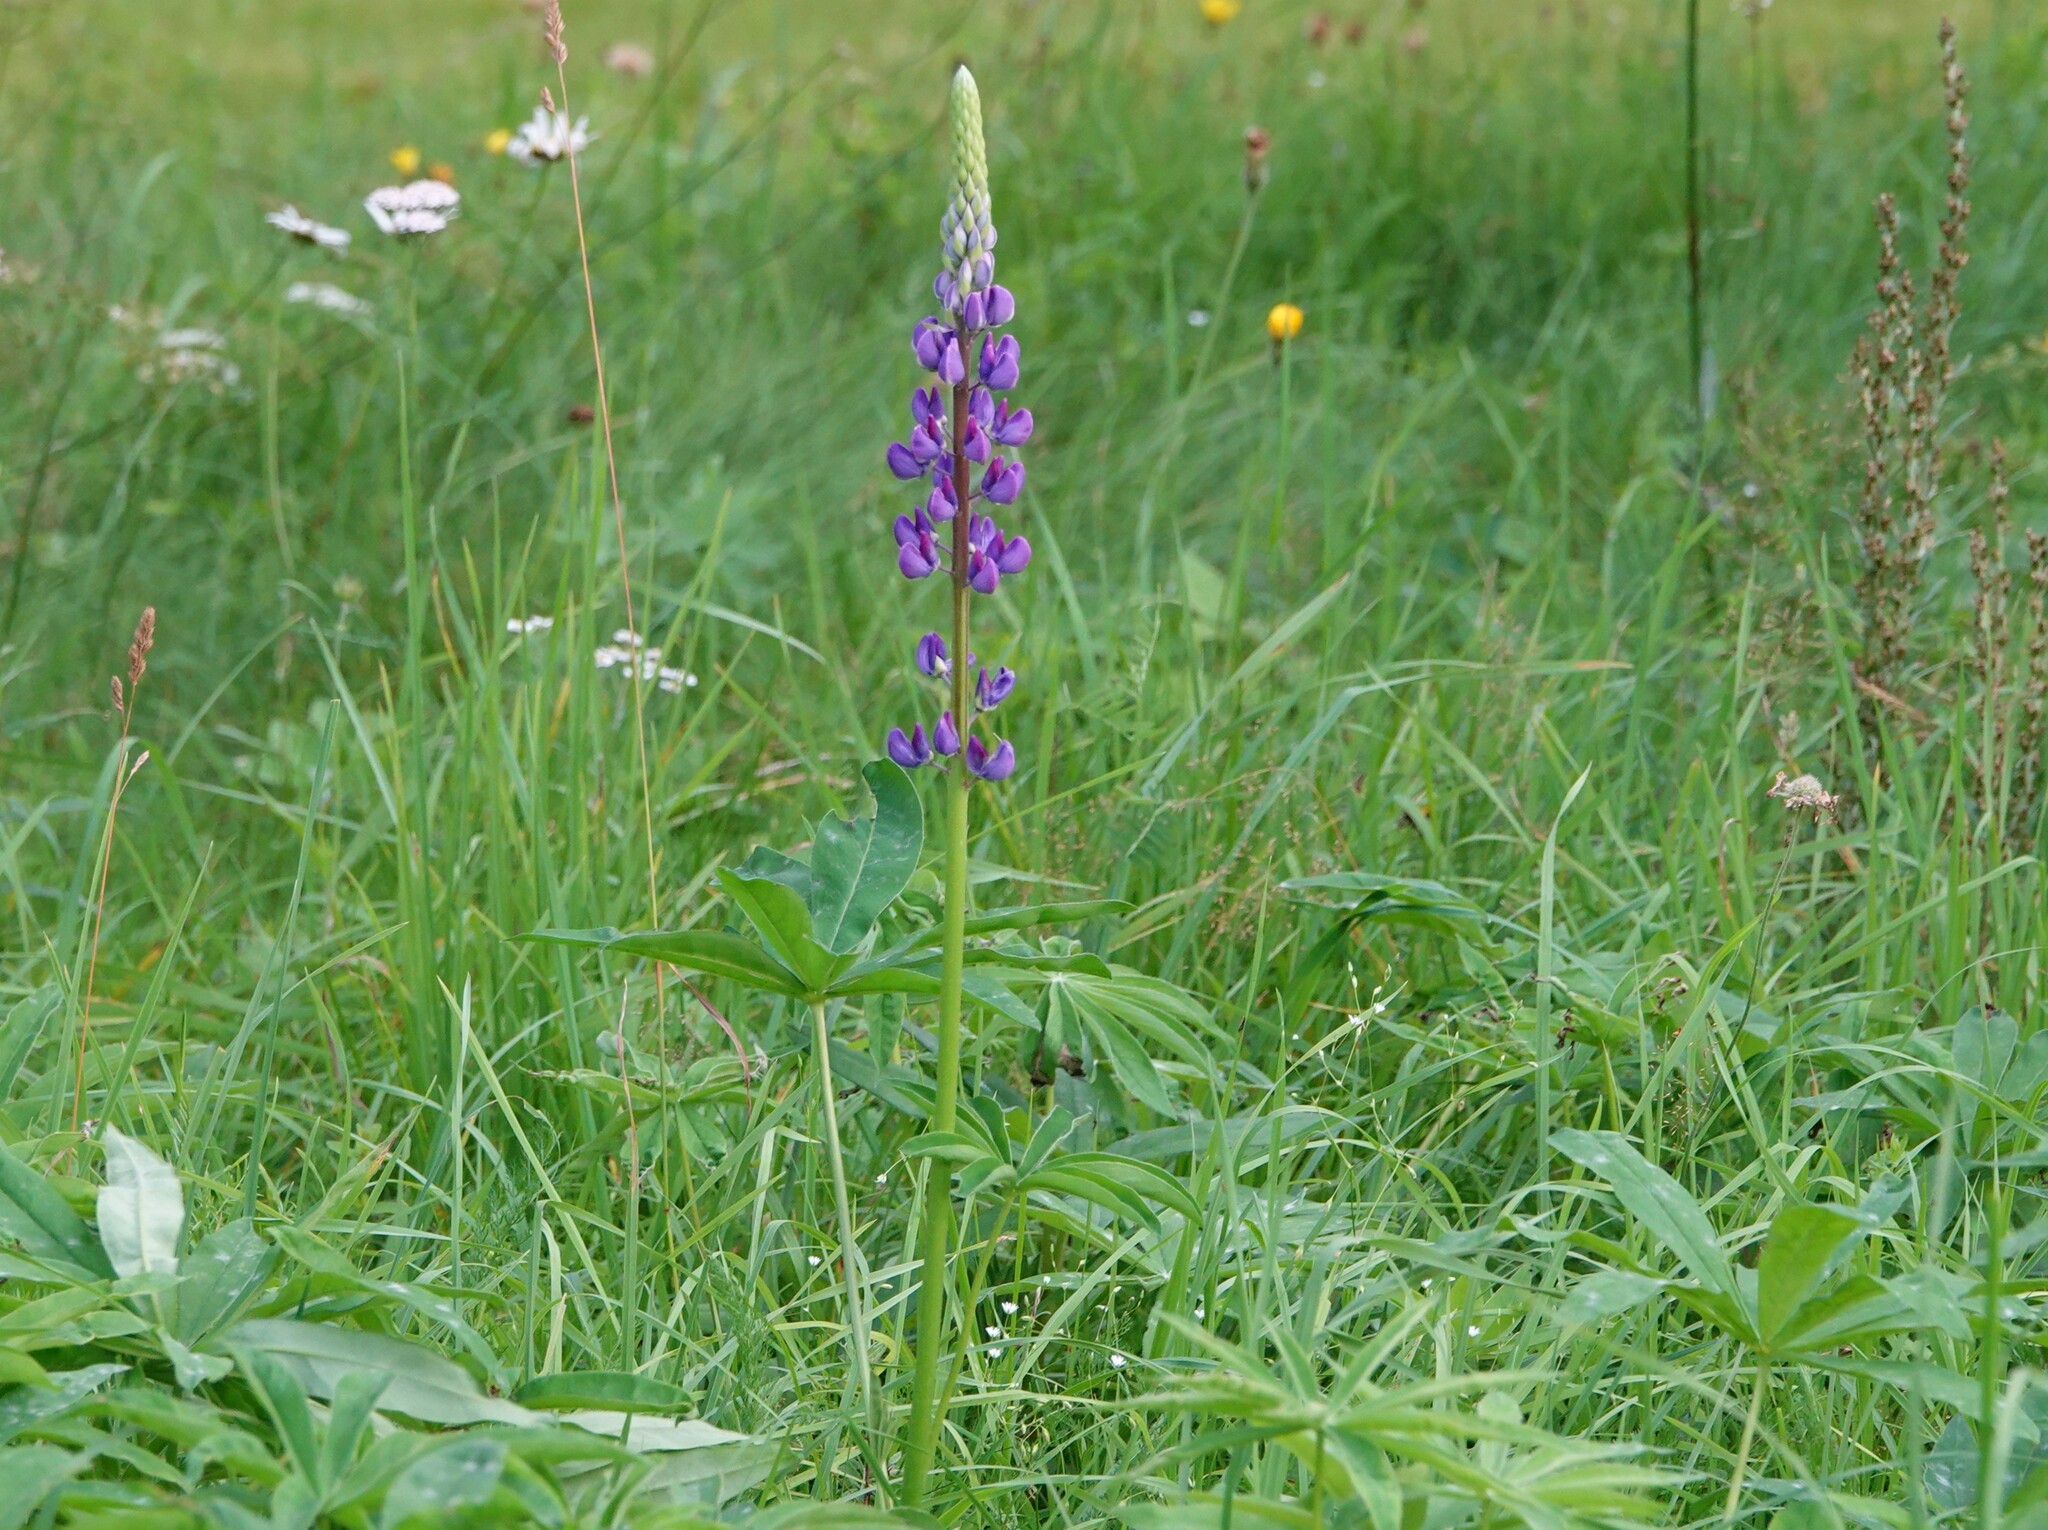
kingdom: Plantae
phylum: Tracheophyta
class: Magnoliopsida
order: Fabales
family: Fabaceae
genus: Lupinus
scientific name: Lupinus polyphyllus
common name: Garden lupin
